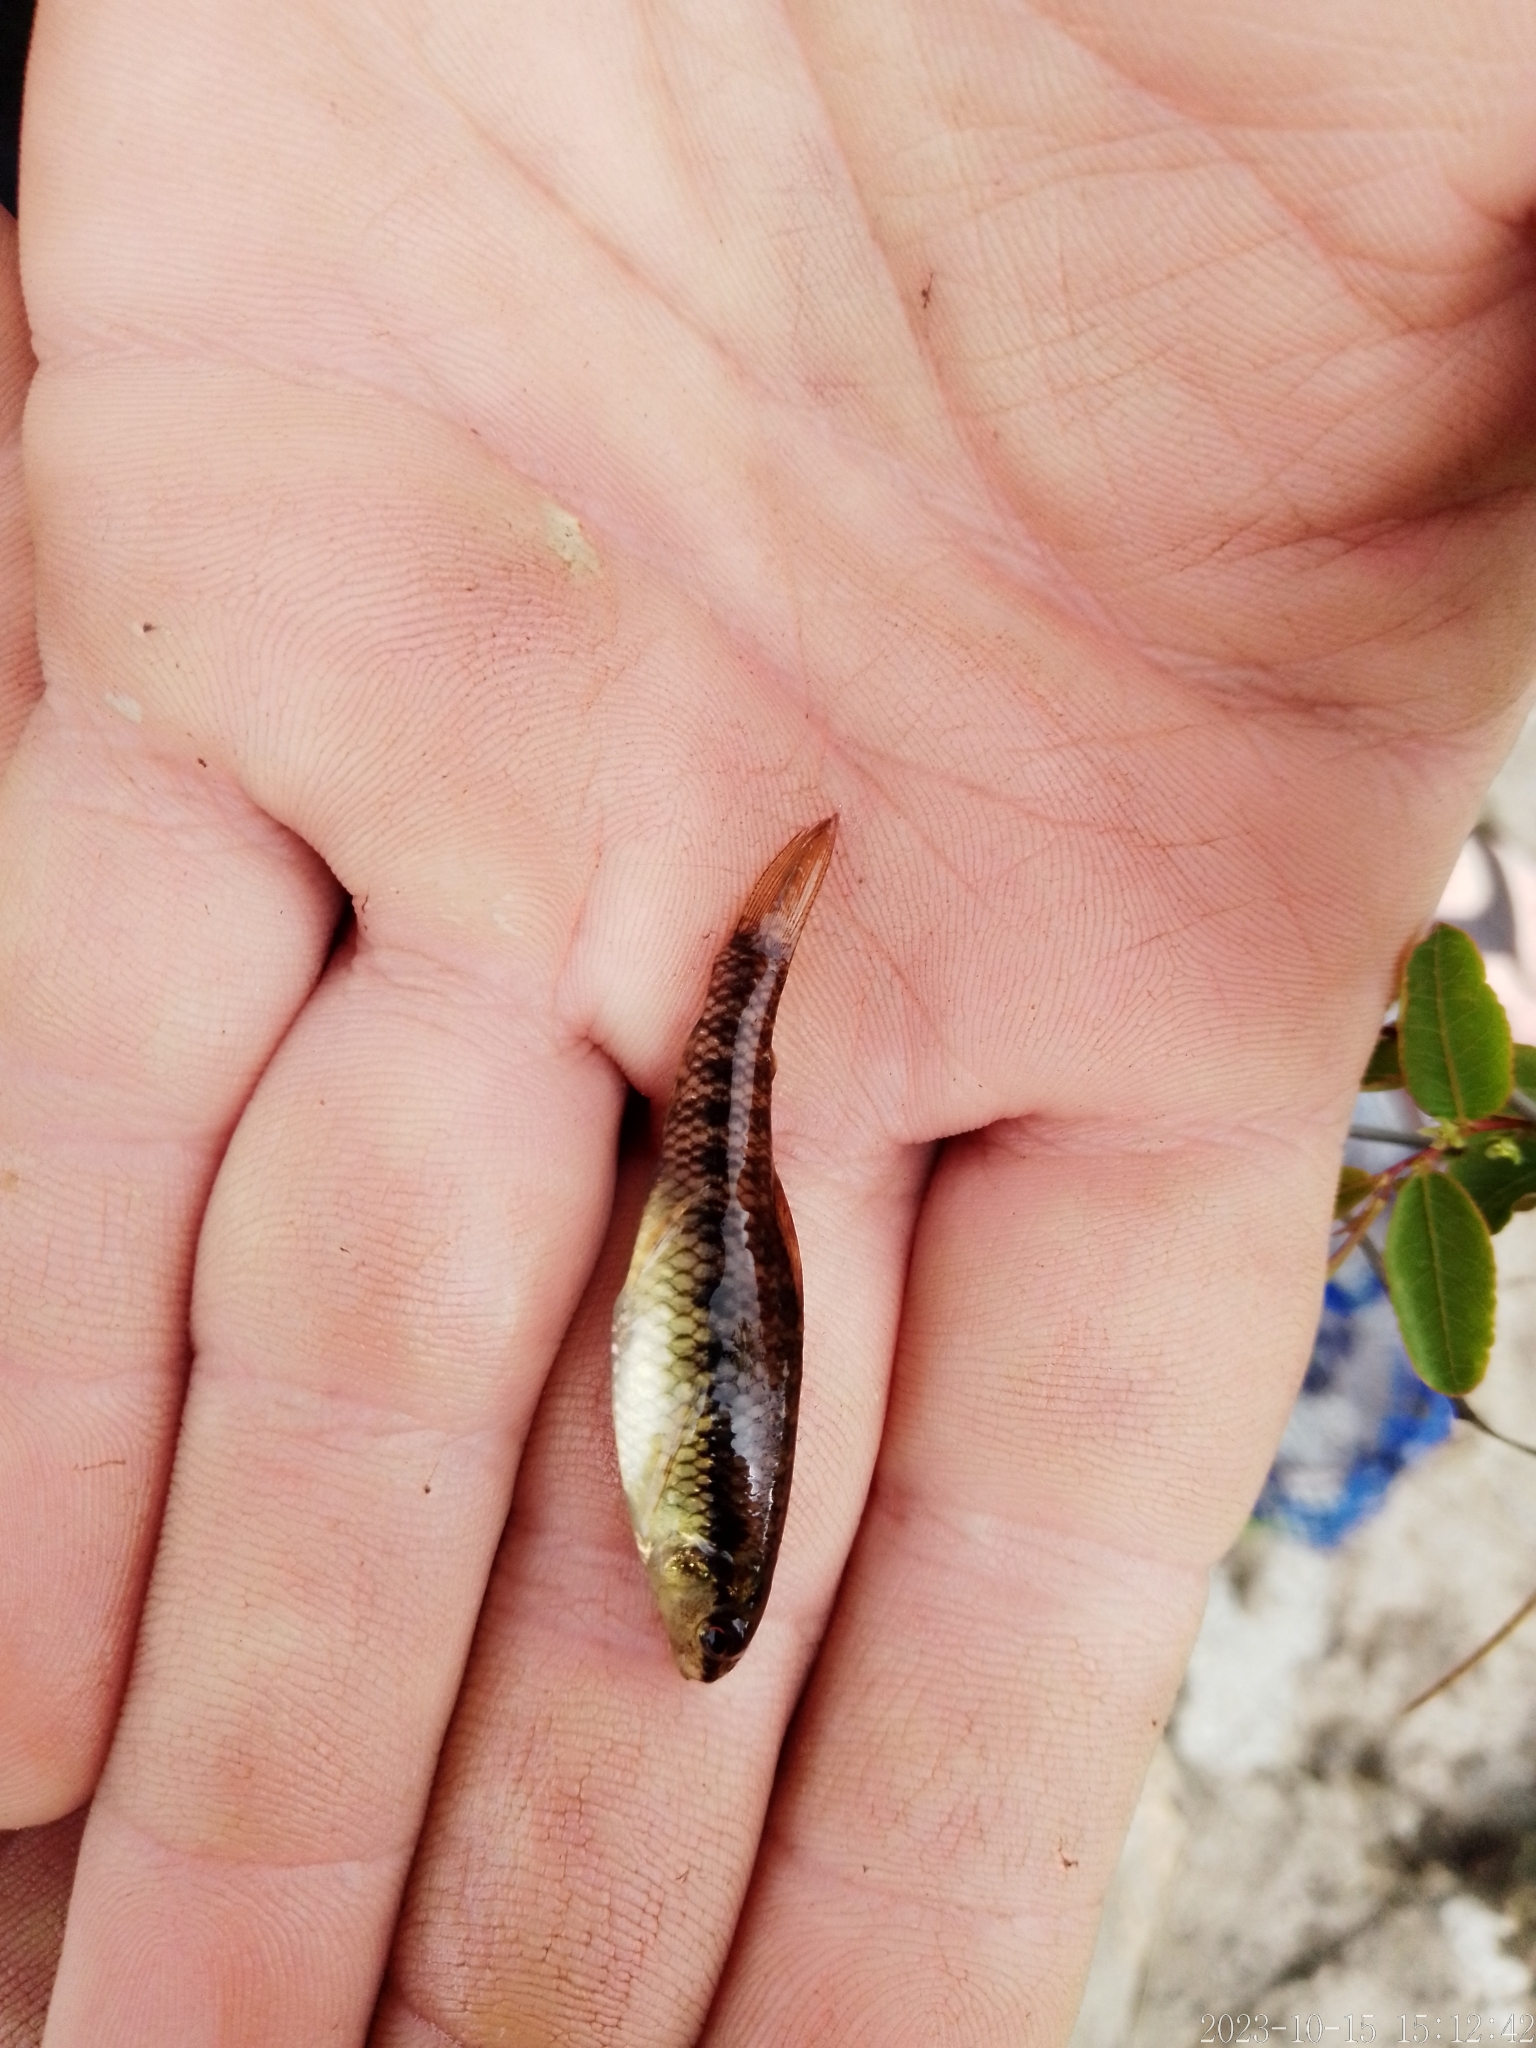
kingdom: Animalia
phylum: Chordata
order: Characiformes
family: Crenuchidae
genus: Characidium
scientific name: Characidium rachovii
